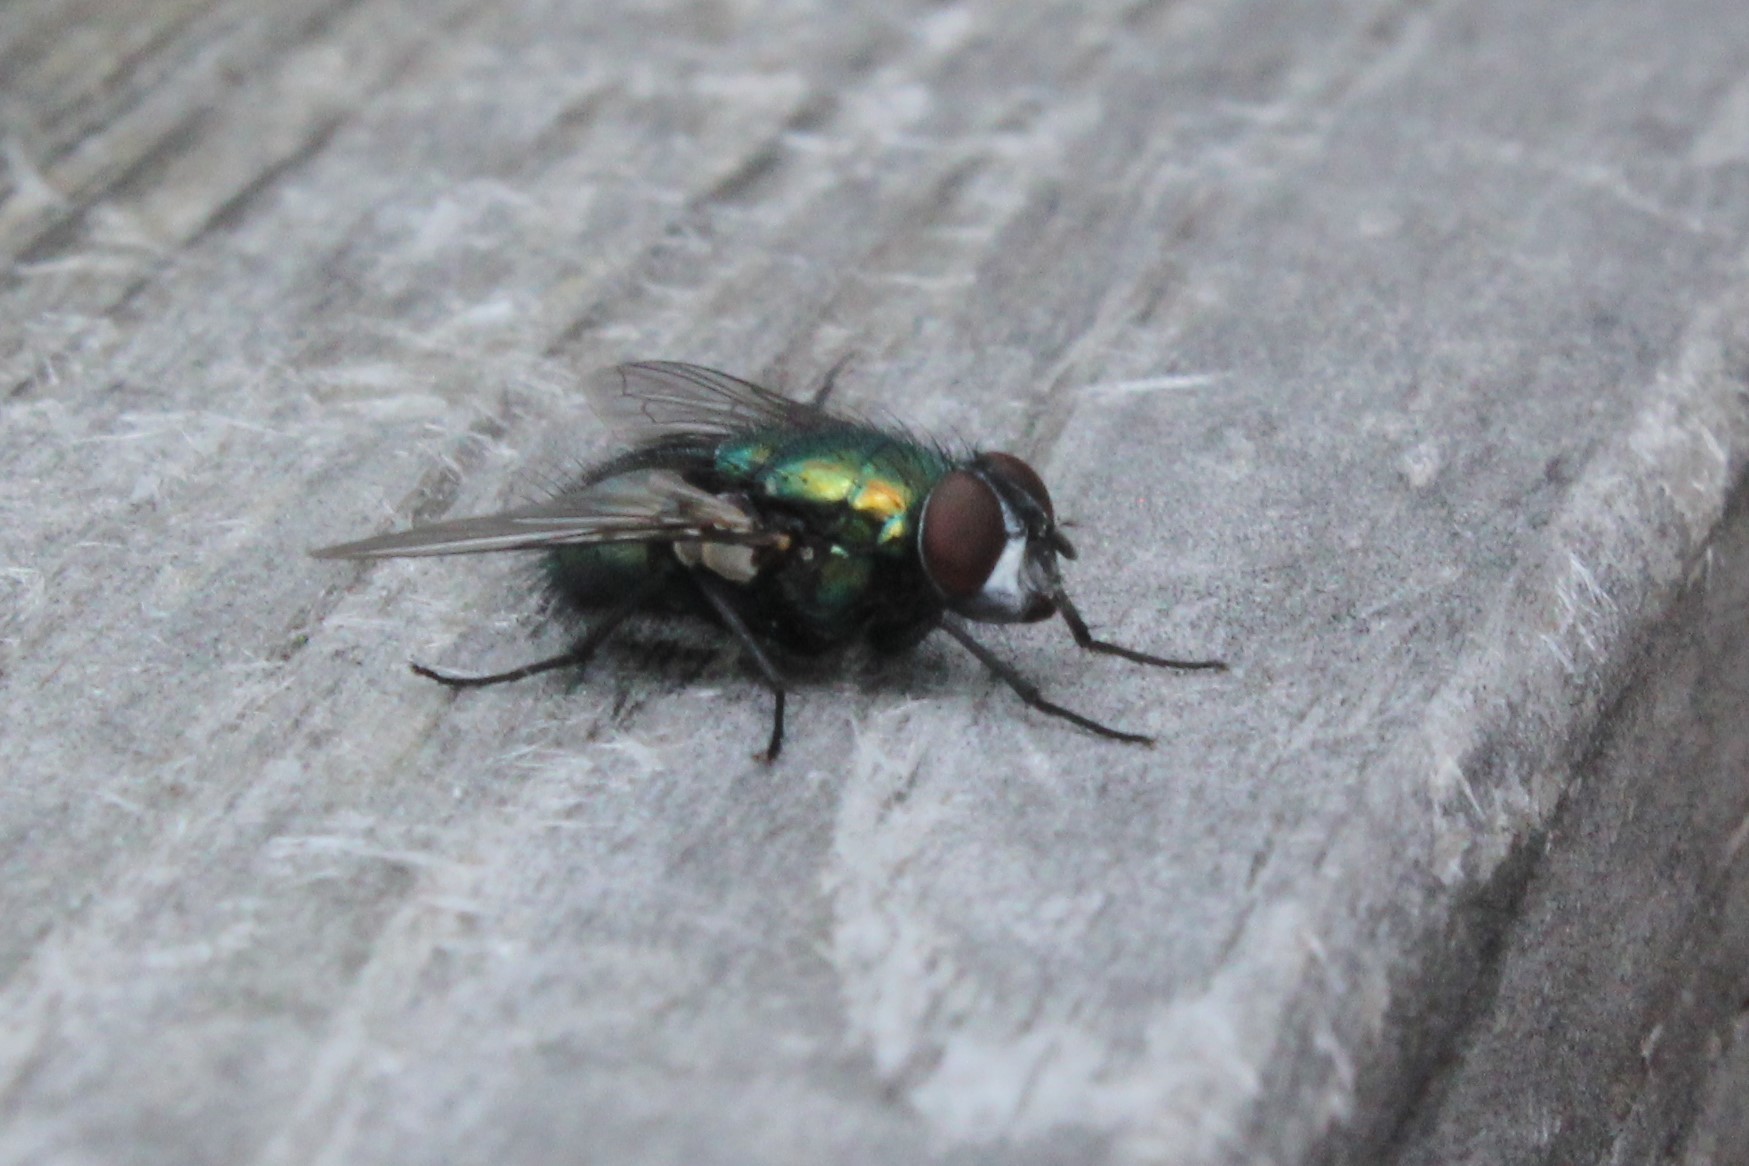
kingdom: Animalia
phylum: Arthropoda
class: Insecta
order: Diptera
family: Calliphoridae
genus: Lucilia
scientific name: Lucilia sericata
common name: Blow fly
